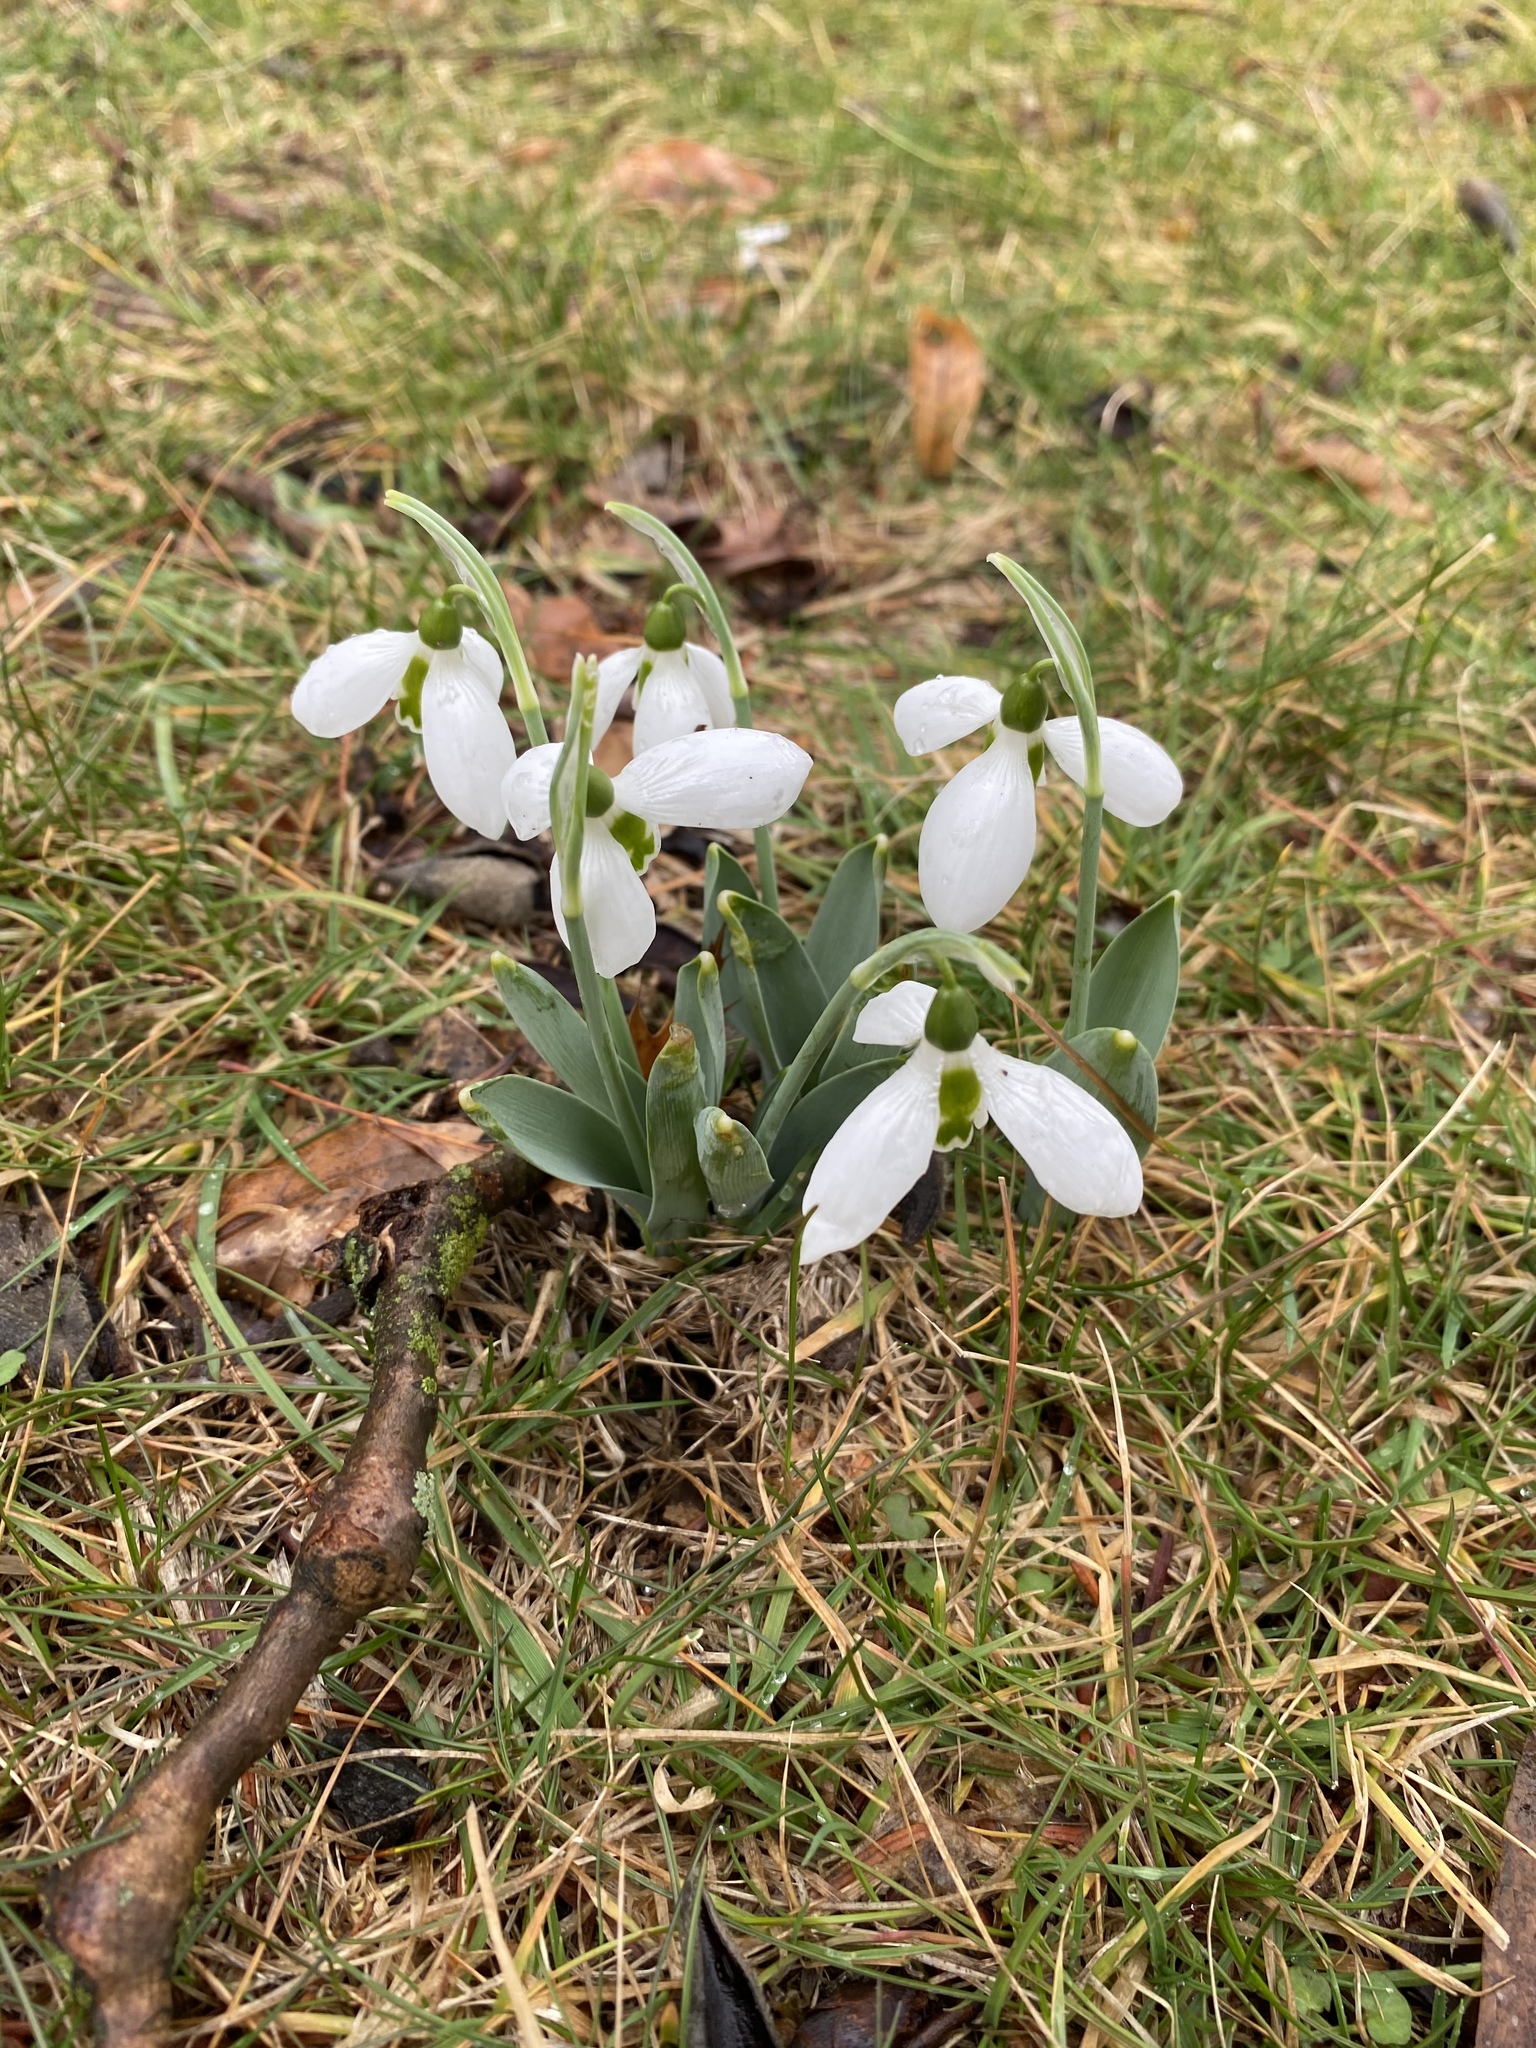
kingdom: Plantae
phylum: Tracheophyta
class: Liliopsida
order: Asparagales
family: Amaryllidaceae
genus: Galanthus
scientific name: Galanthus elwesii
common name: Greater snowdrop
